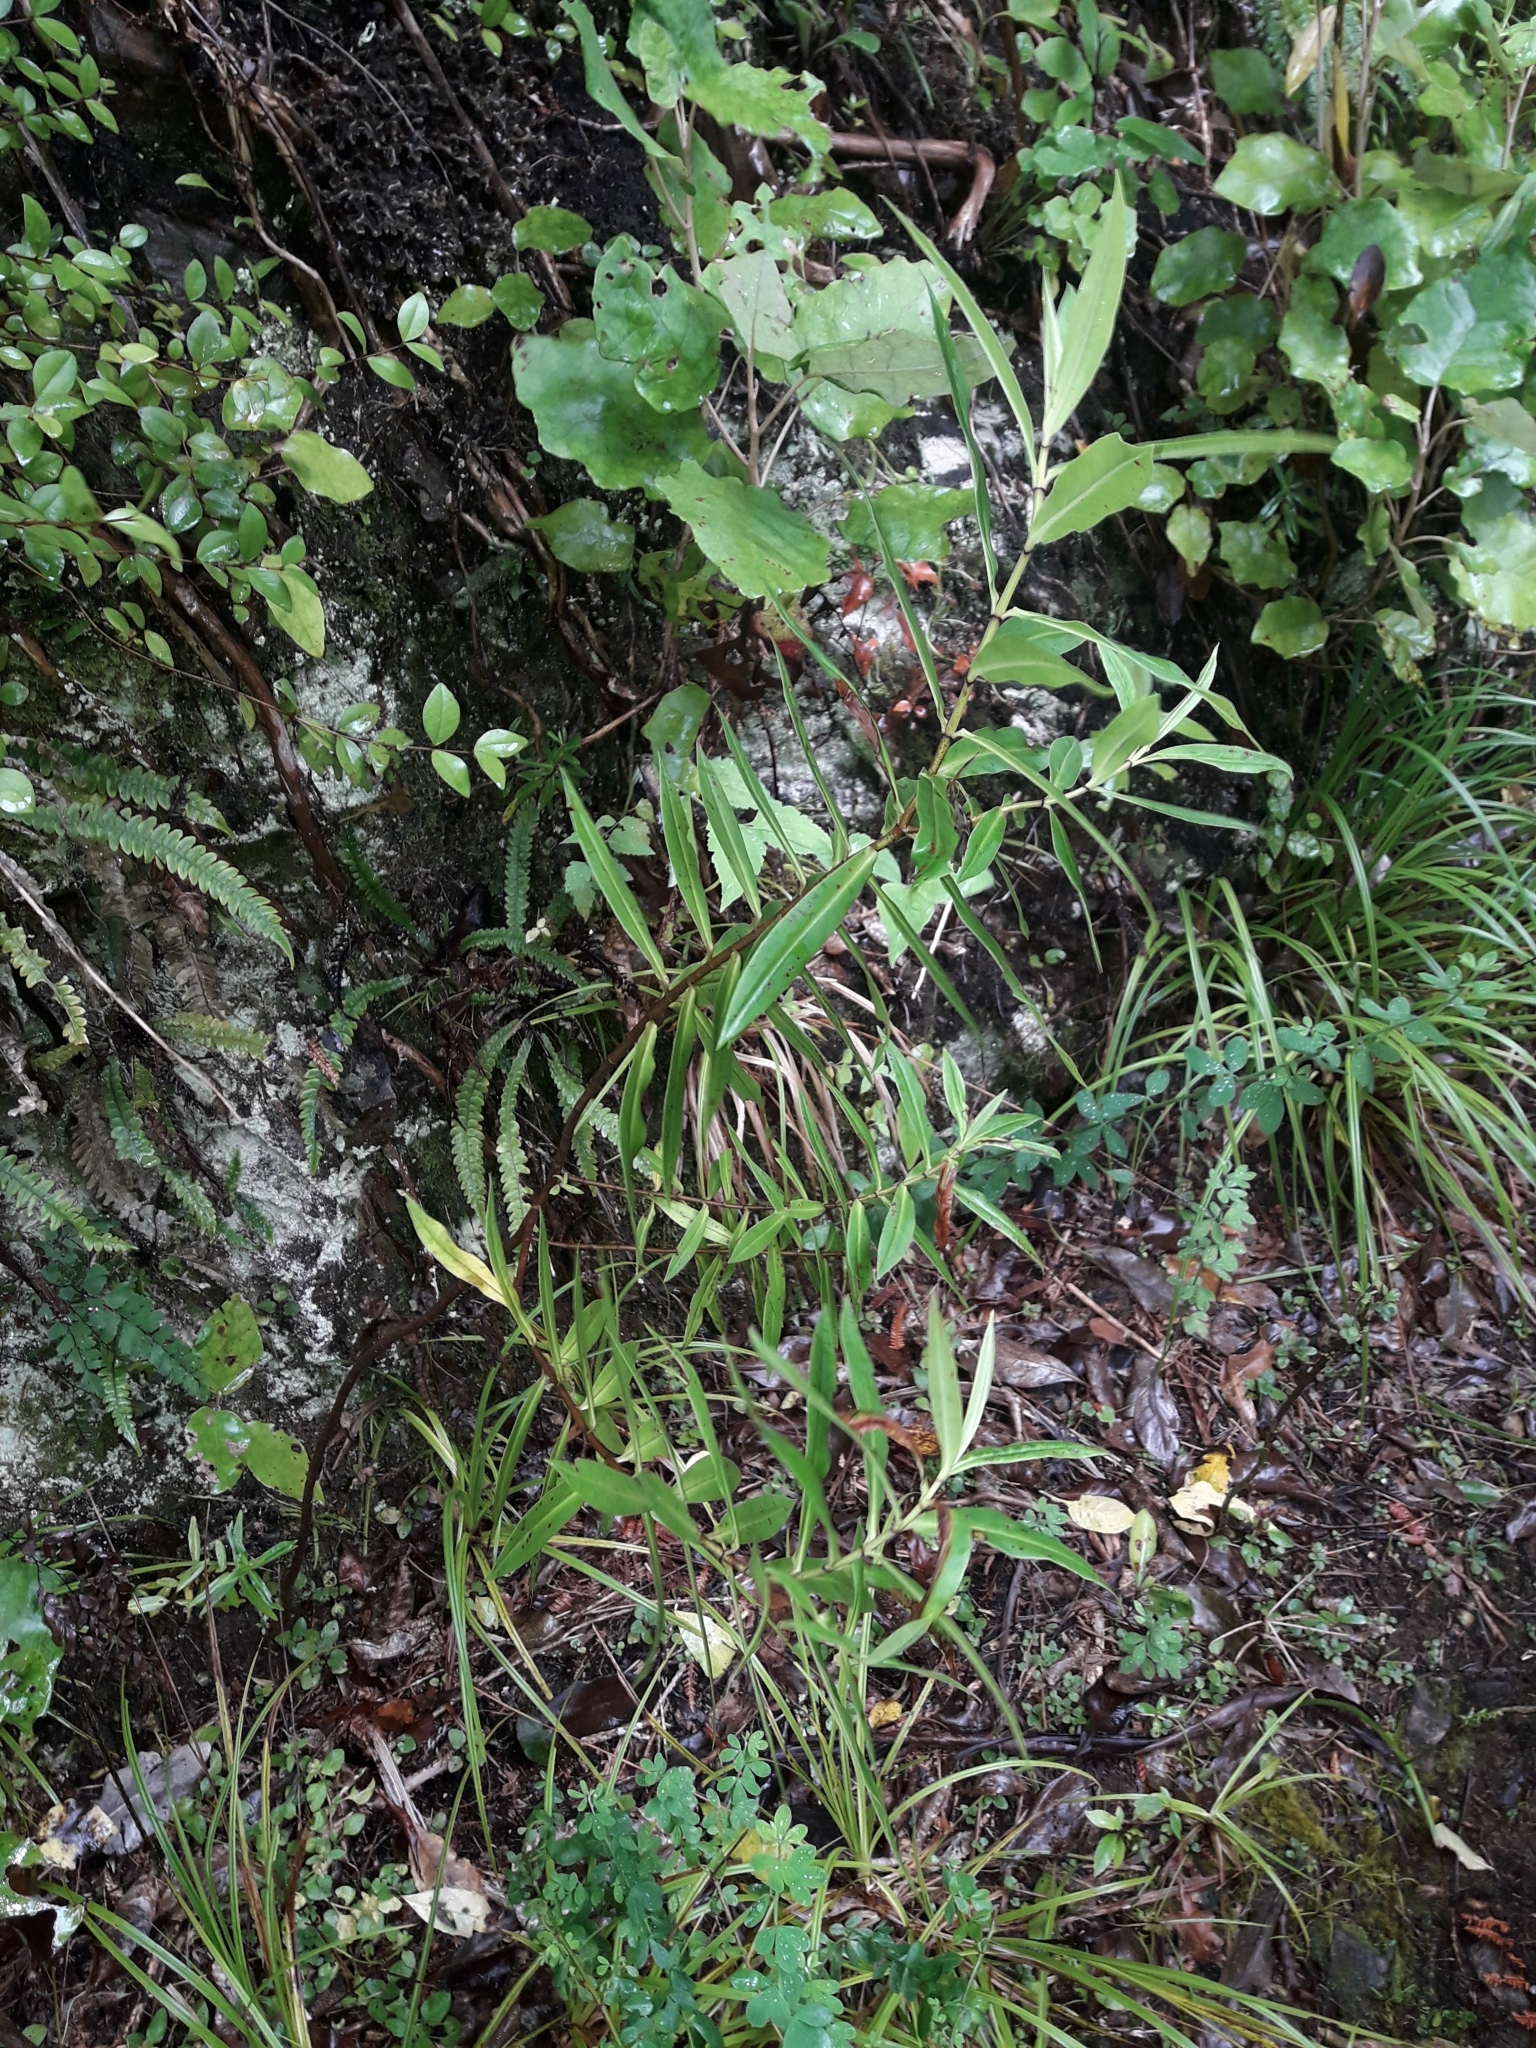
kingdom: Plantae
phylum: Tracheophyta
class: Magnoliopsida
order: Lamiales
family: Plantaginaceae
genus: Veronica
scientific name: Veronica salicifolia
